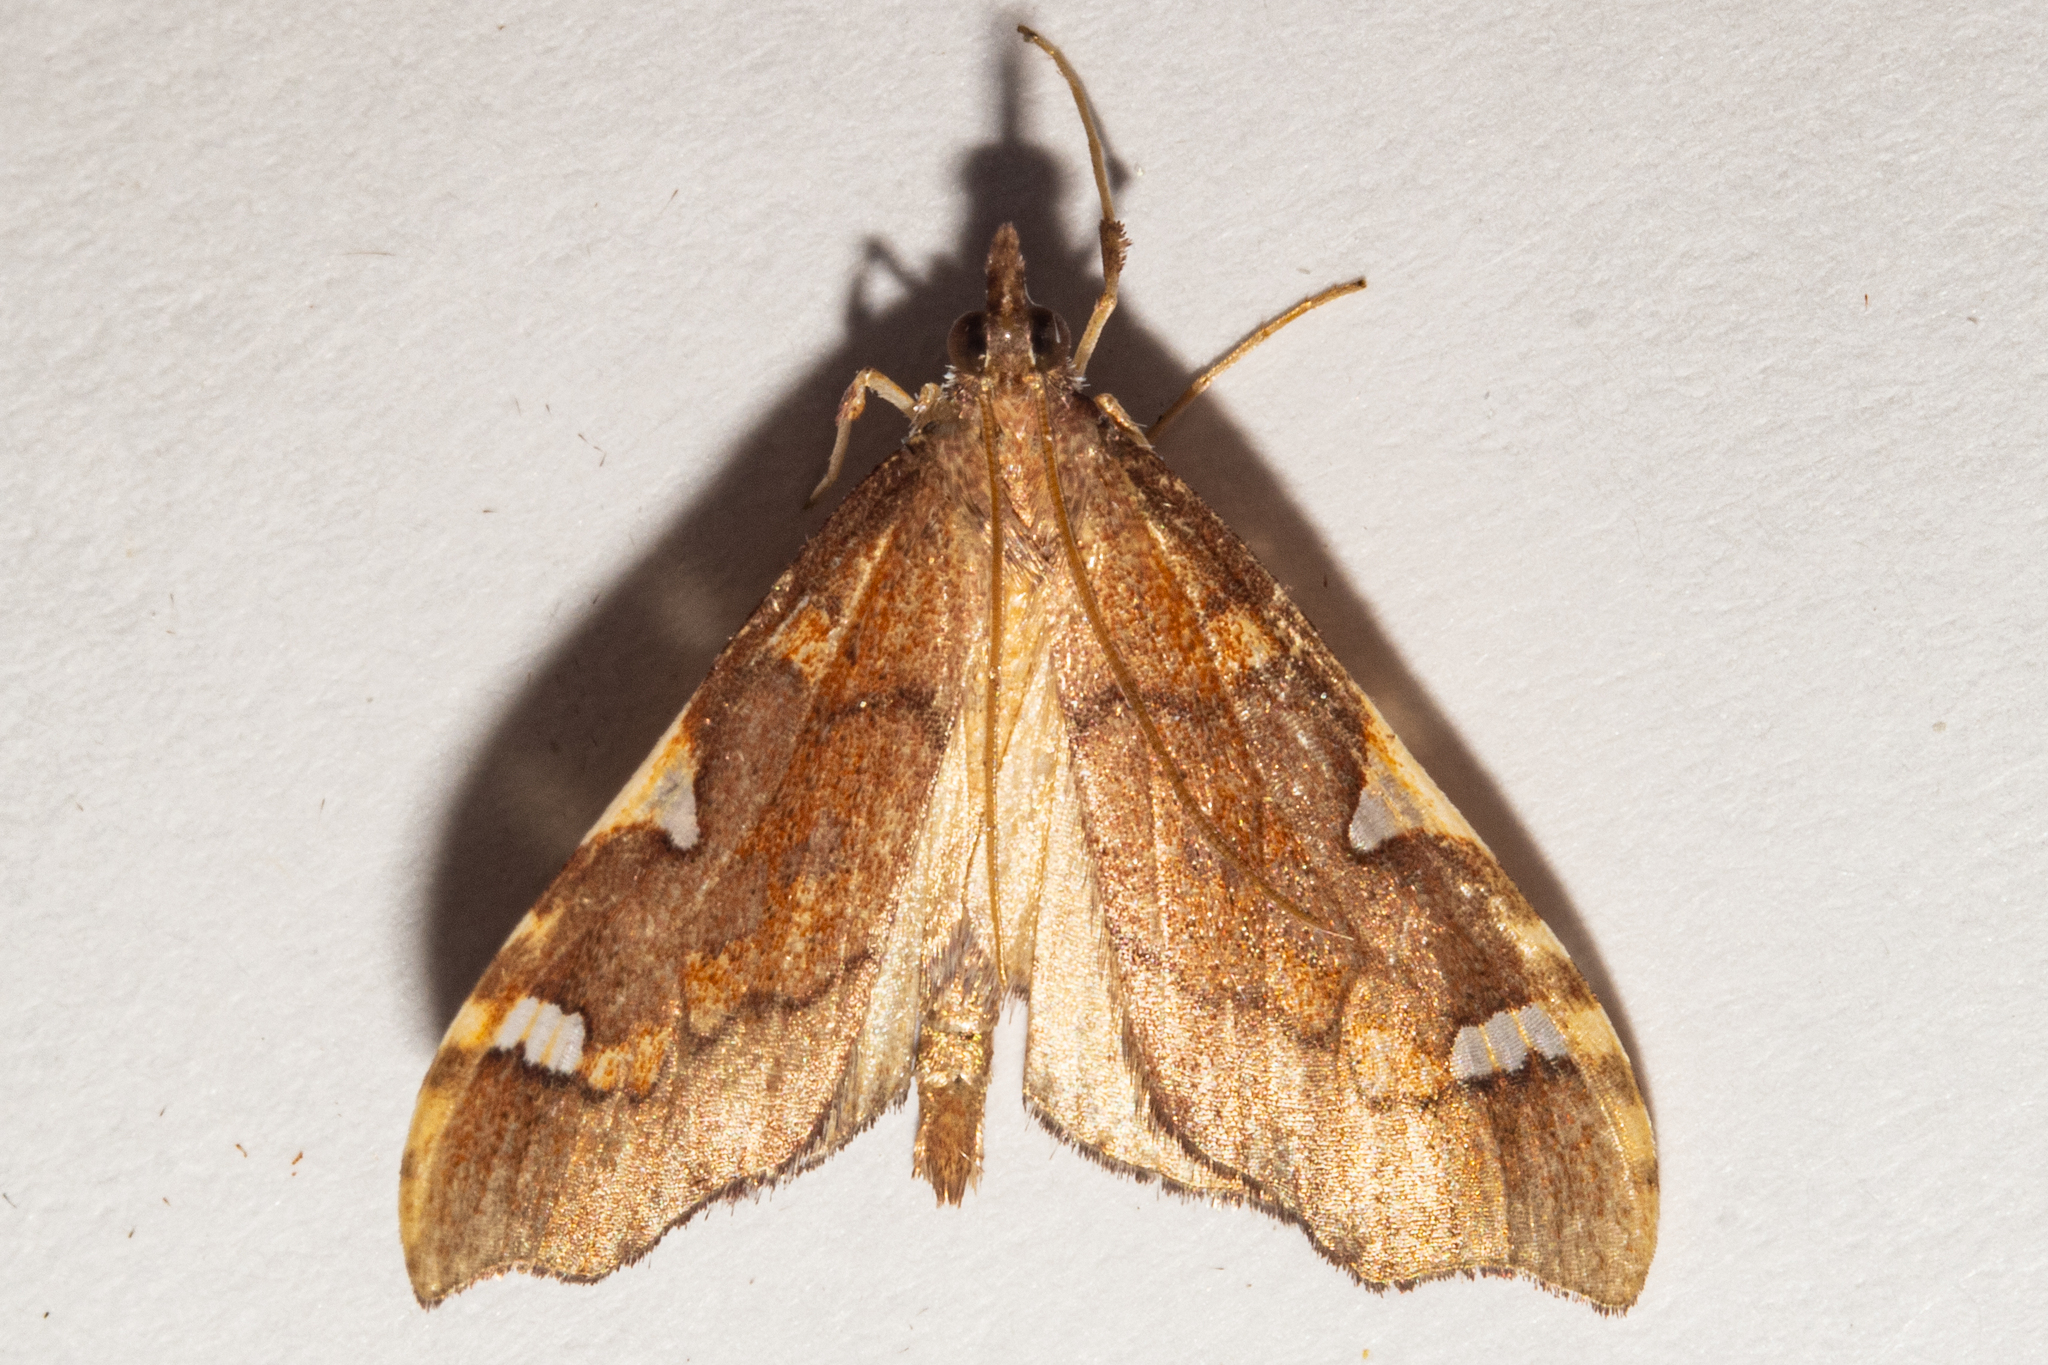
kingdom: Animalia
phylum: Arthropoda
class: Insecta
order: Lepidoptera
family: Crambidae
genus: Deana
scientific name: Deana hybreasalis
